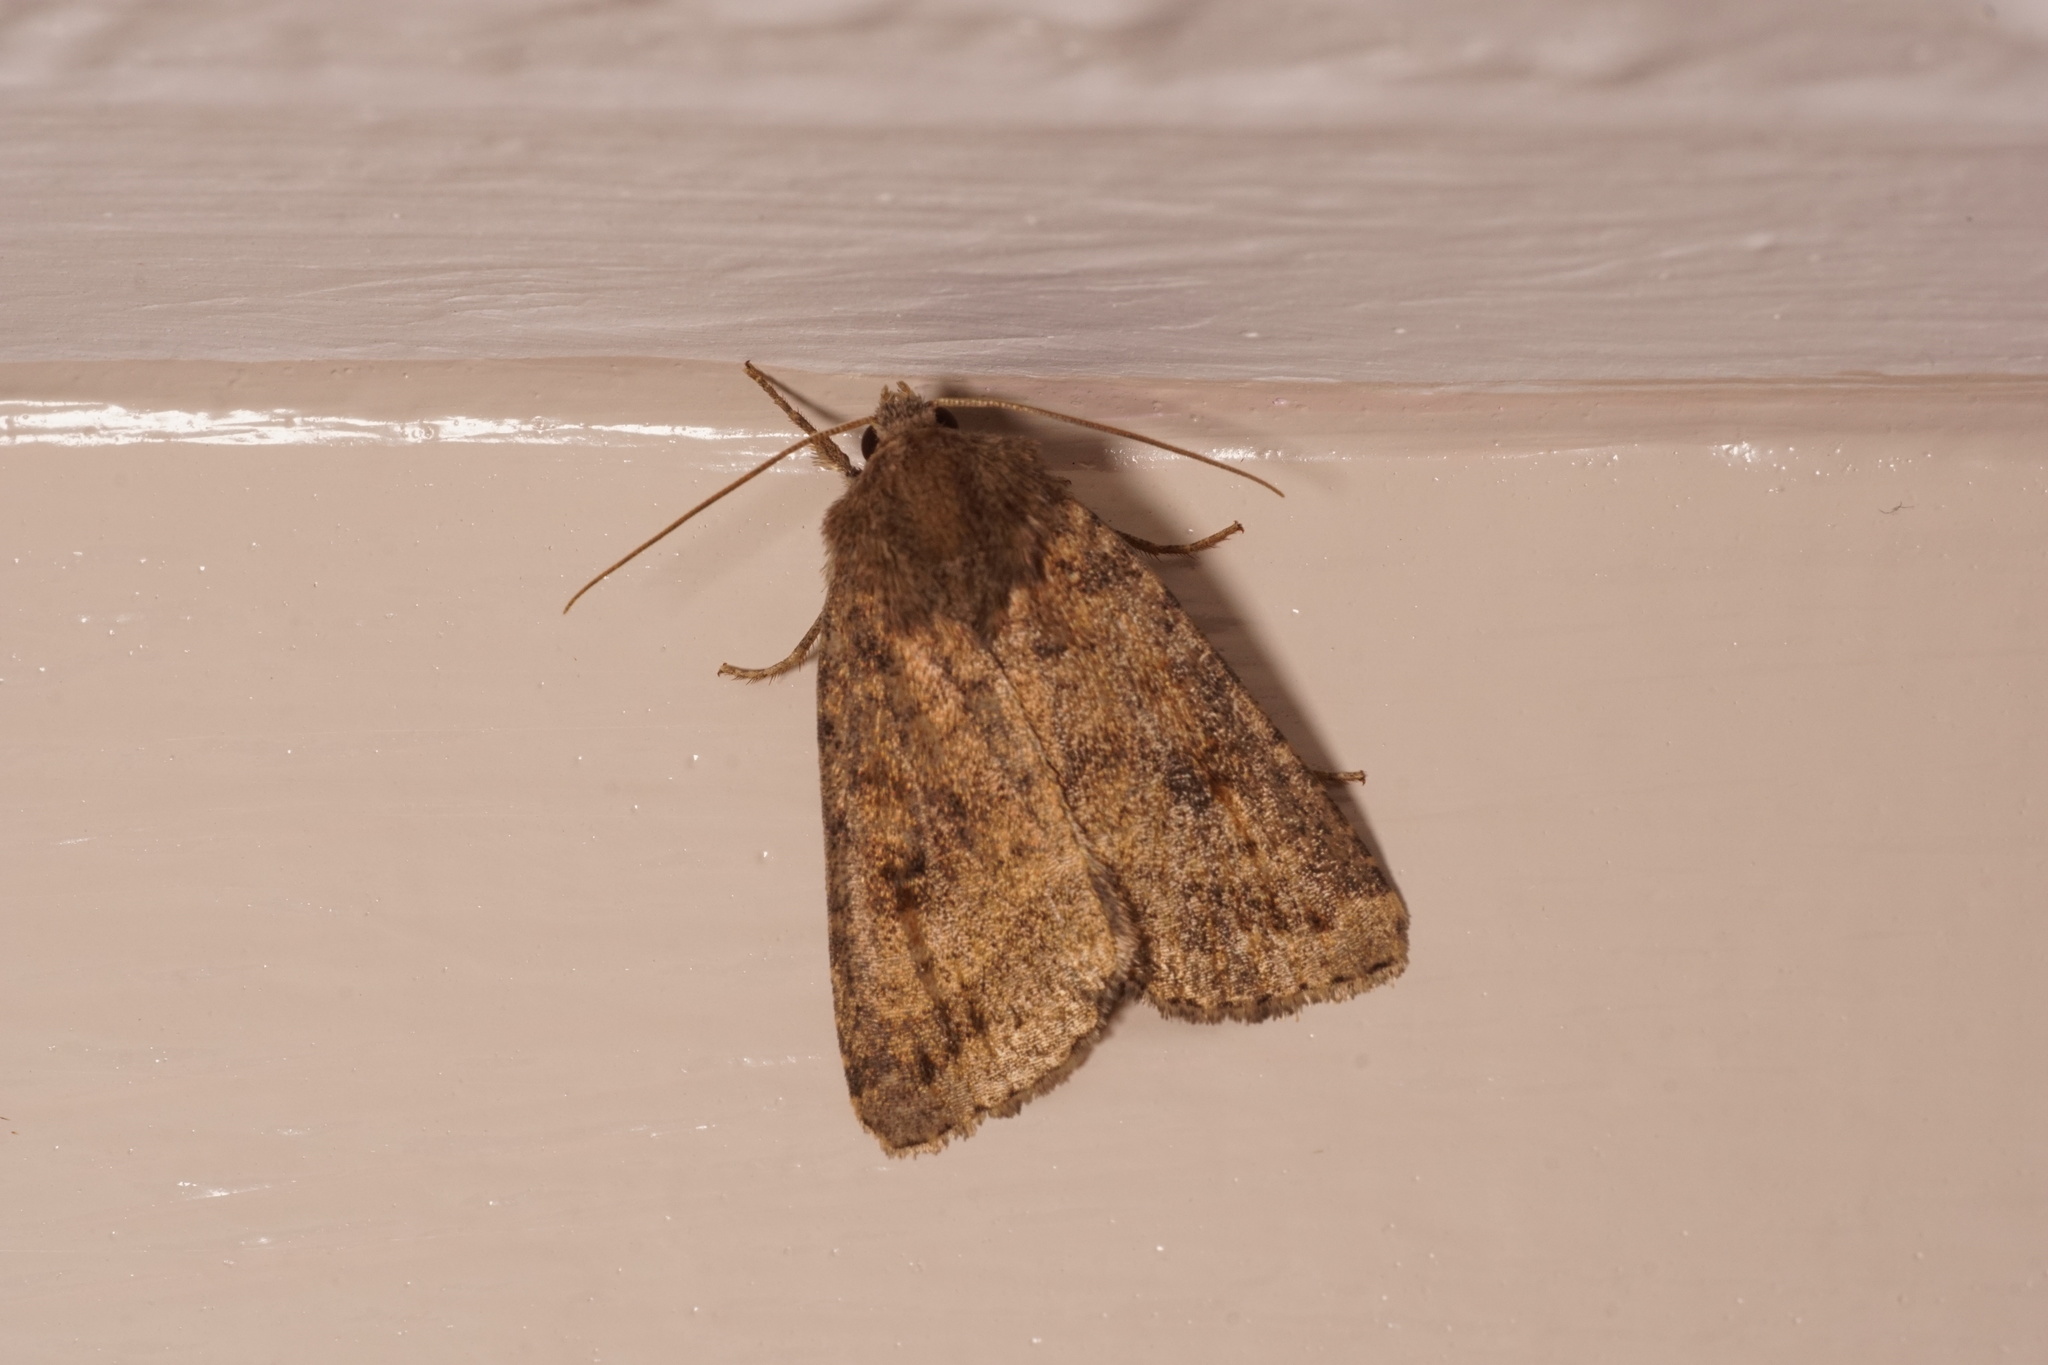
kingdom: Animalia
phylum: Arthropoda
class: Insecta
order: Lepidoptera
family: Noctuidae
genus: Caradrina
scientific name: Caradrina morpheus
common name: Mottled rustic
